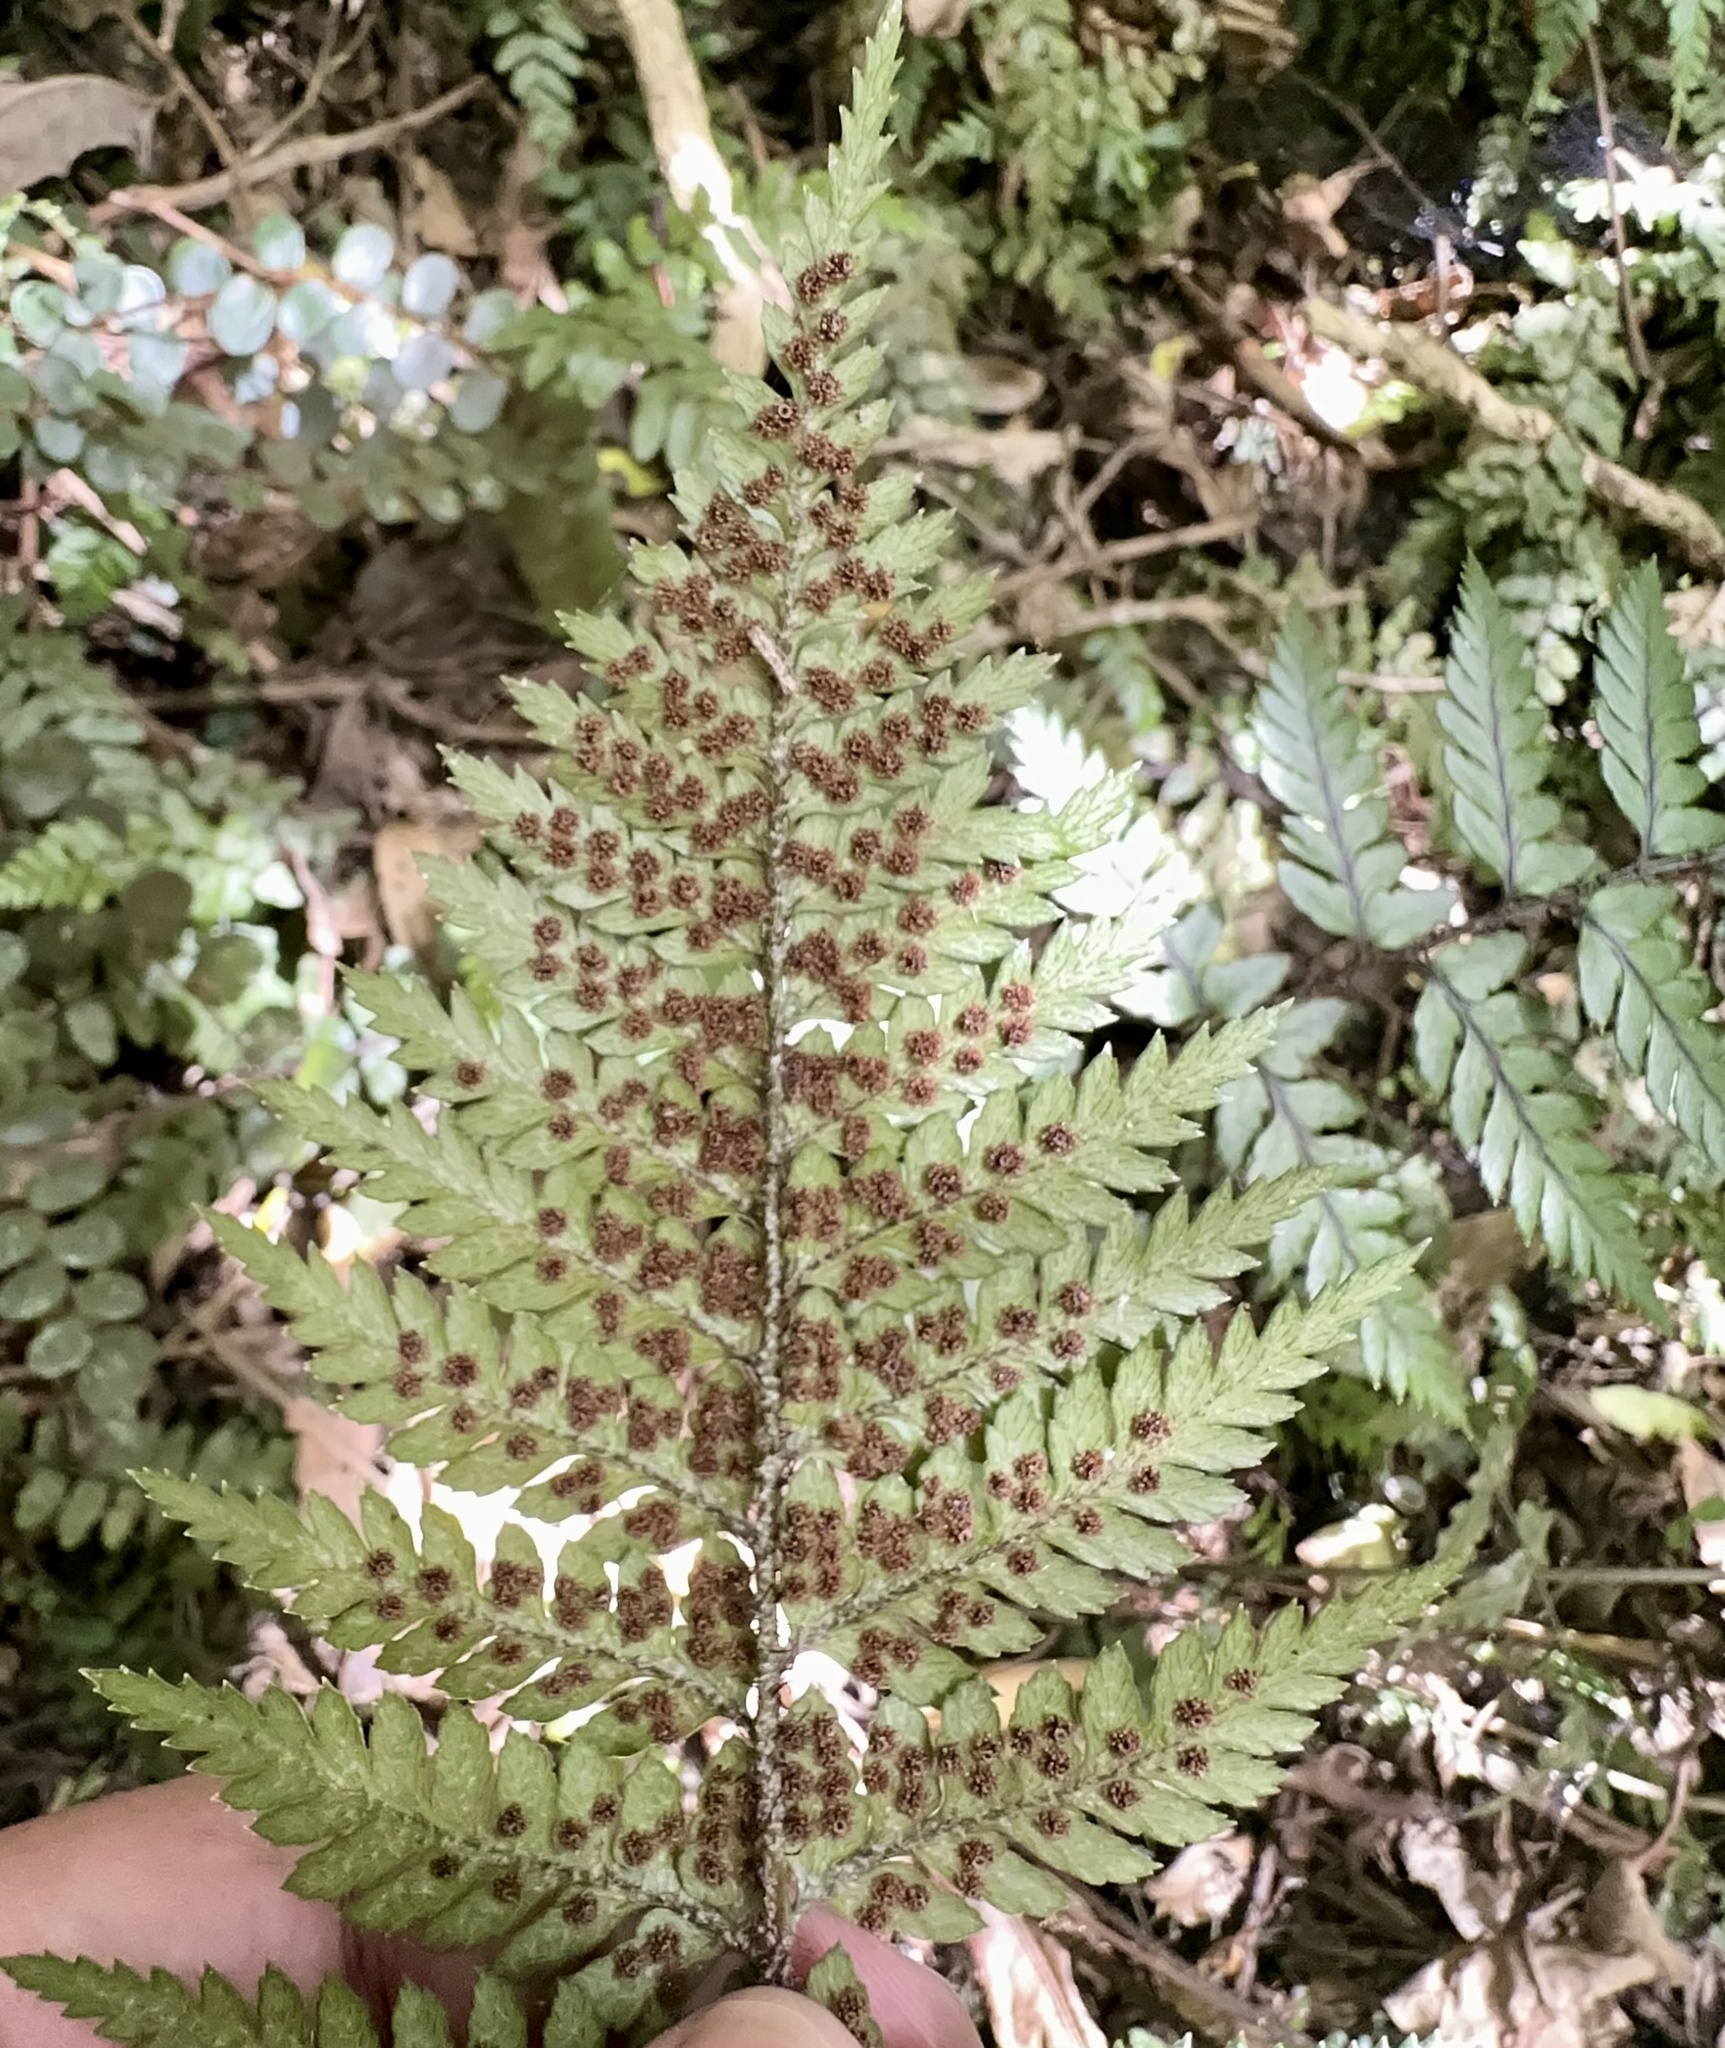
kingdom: Plantae
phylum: Tracheophyta
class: Polypodiopsida
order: Polypodiales
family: Dryopteridaceae
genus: Polystichum
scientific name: Polystichum neozelandicum
